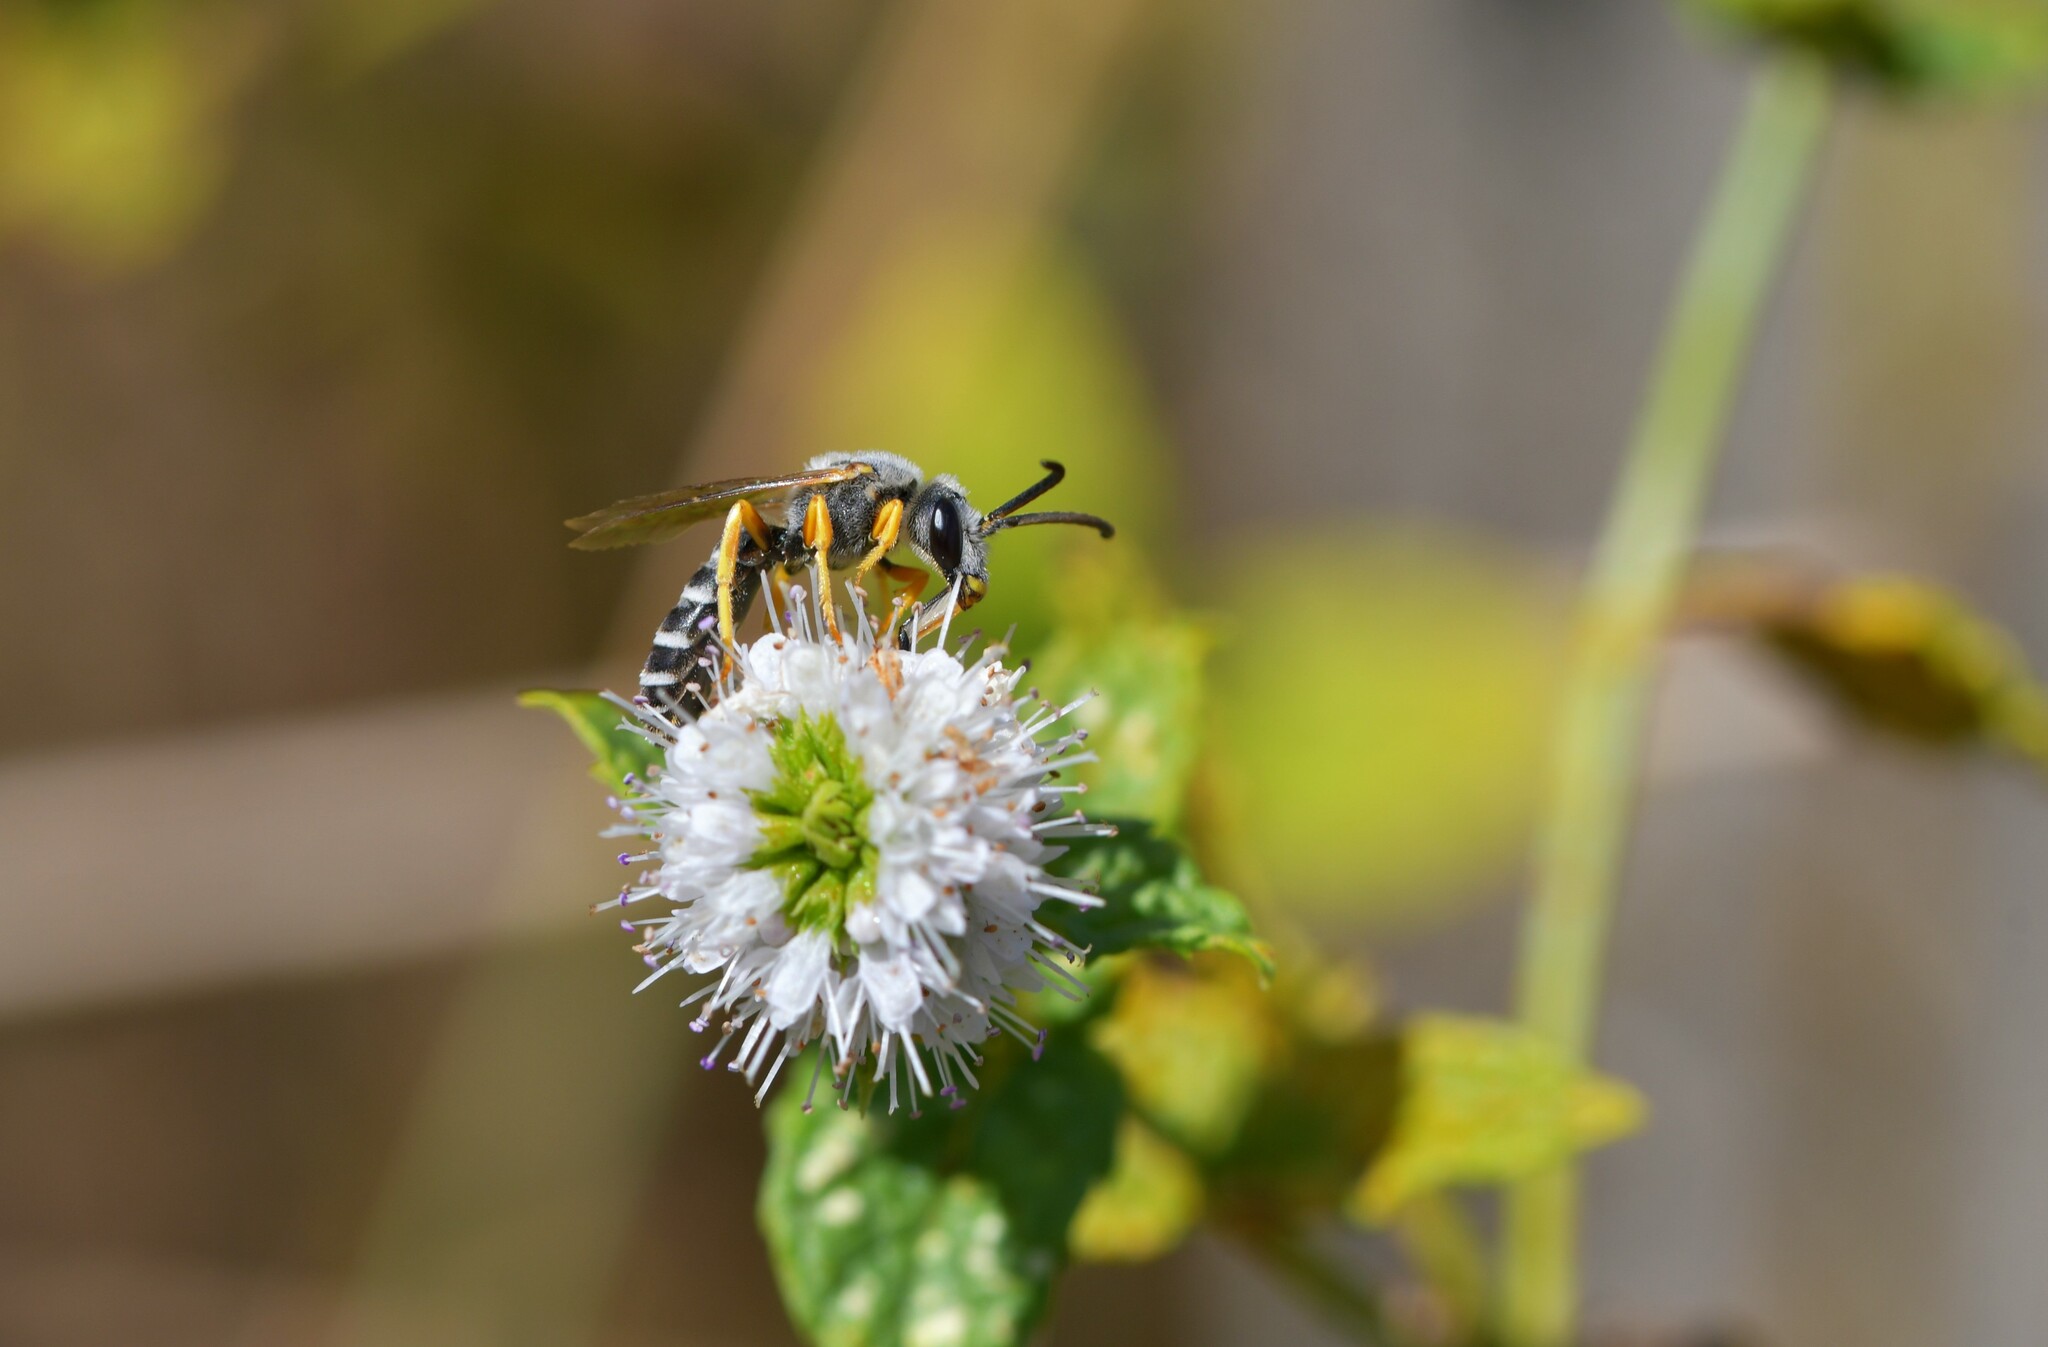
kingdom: Animalia
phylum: Arthropoda
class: Insecta
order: Hymenoptera
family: Halictidae
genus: Halictus
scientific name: Halictus scabiosae
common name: Great banded furrow bee
